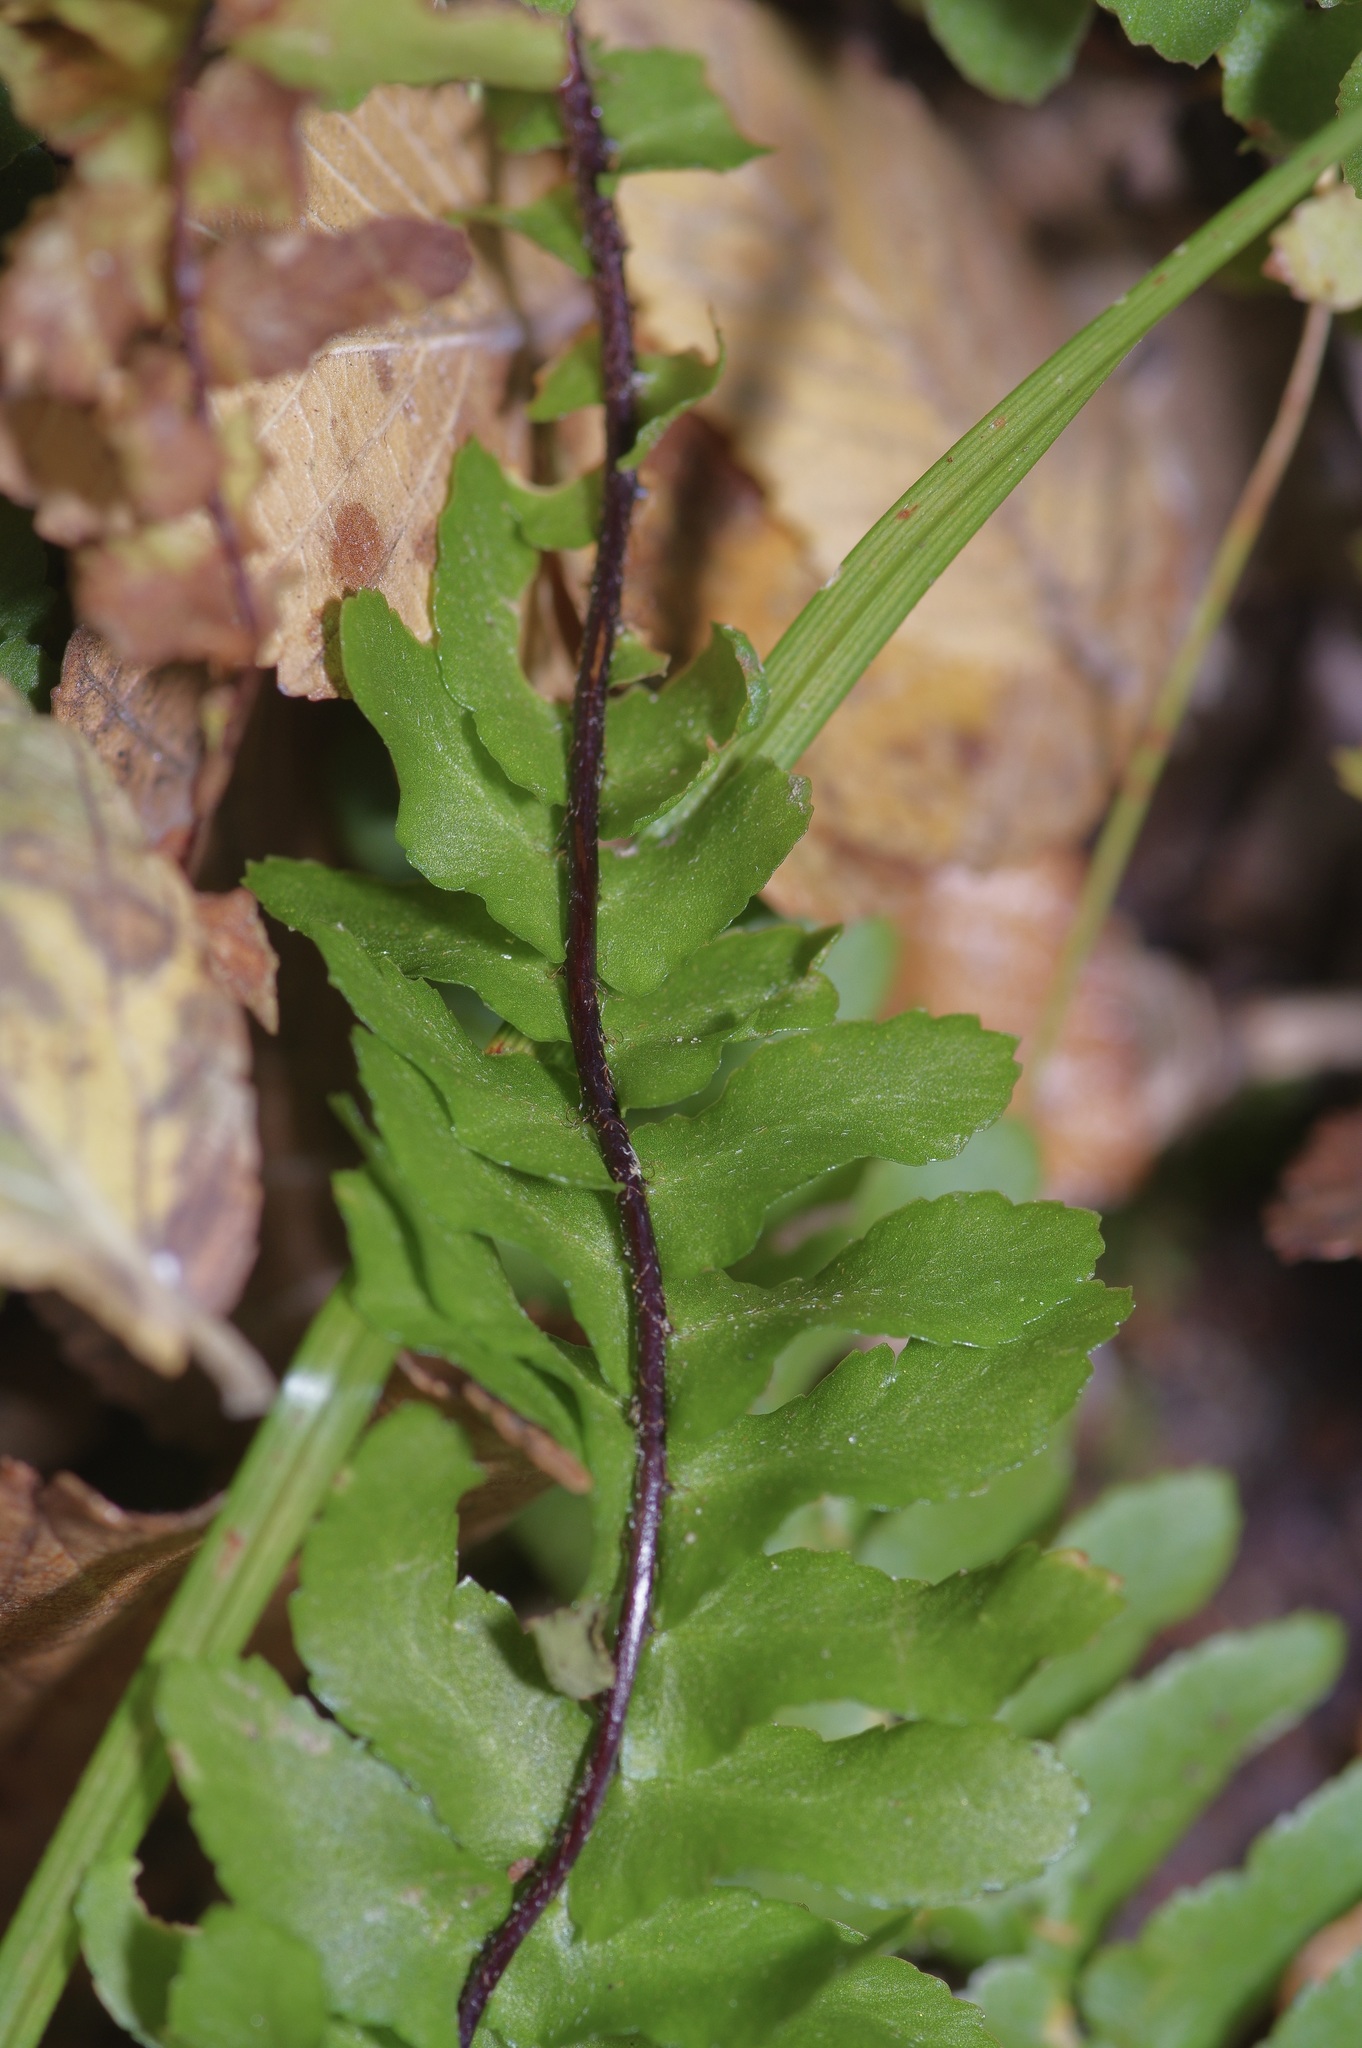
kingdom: Plantae
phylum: Tracheophyta
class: Polypodiopsida
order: Polypodiales
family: Aspleniaceae
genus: Asplenium
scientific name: Asplenium platyneuron
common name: Ebony spleenwort
